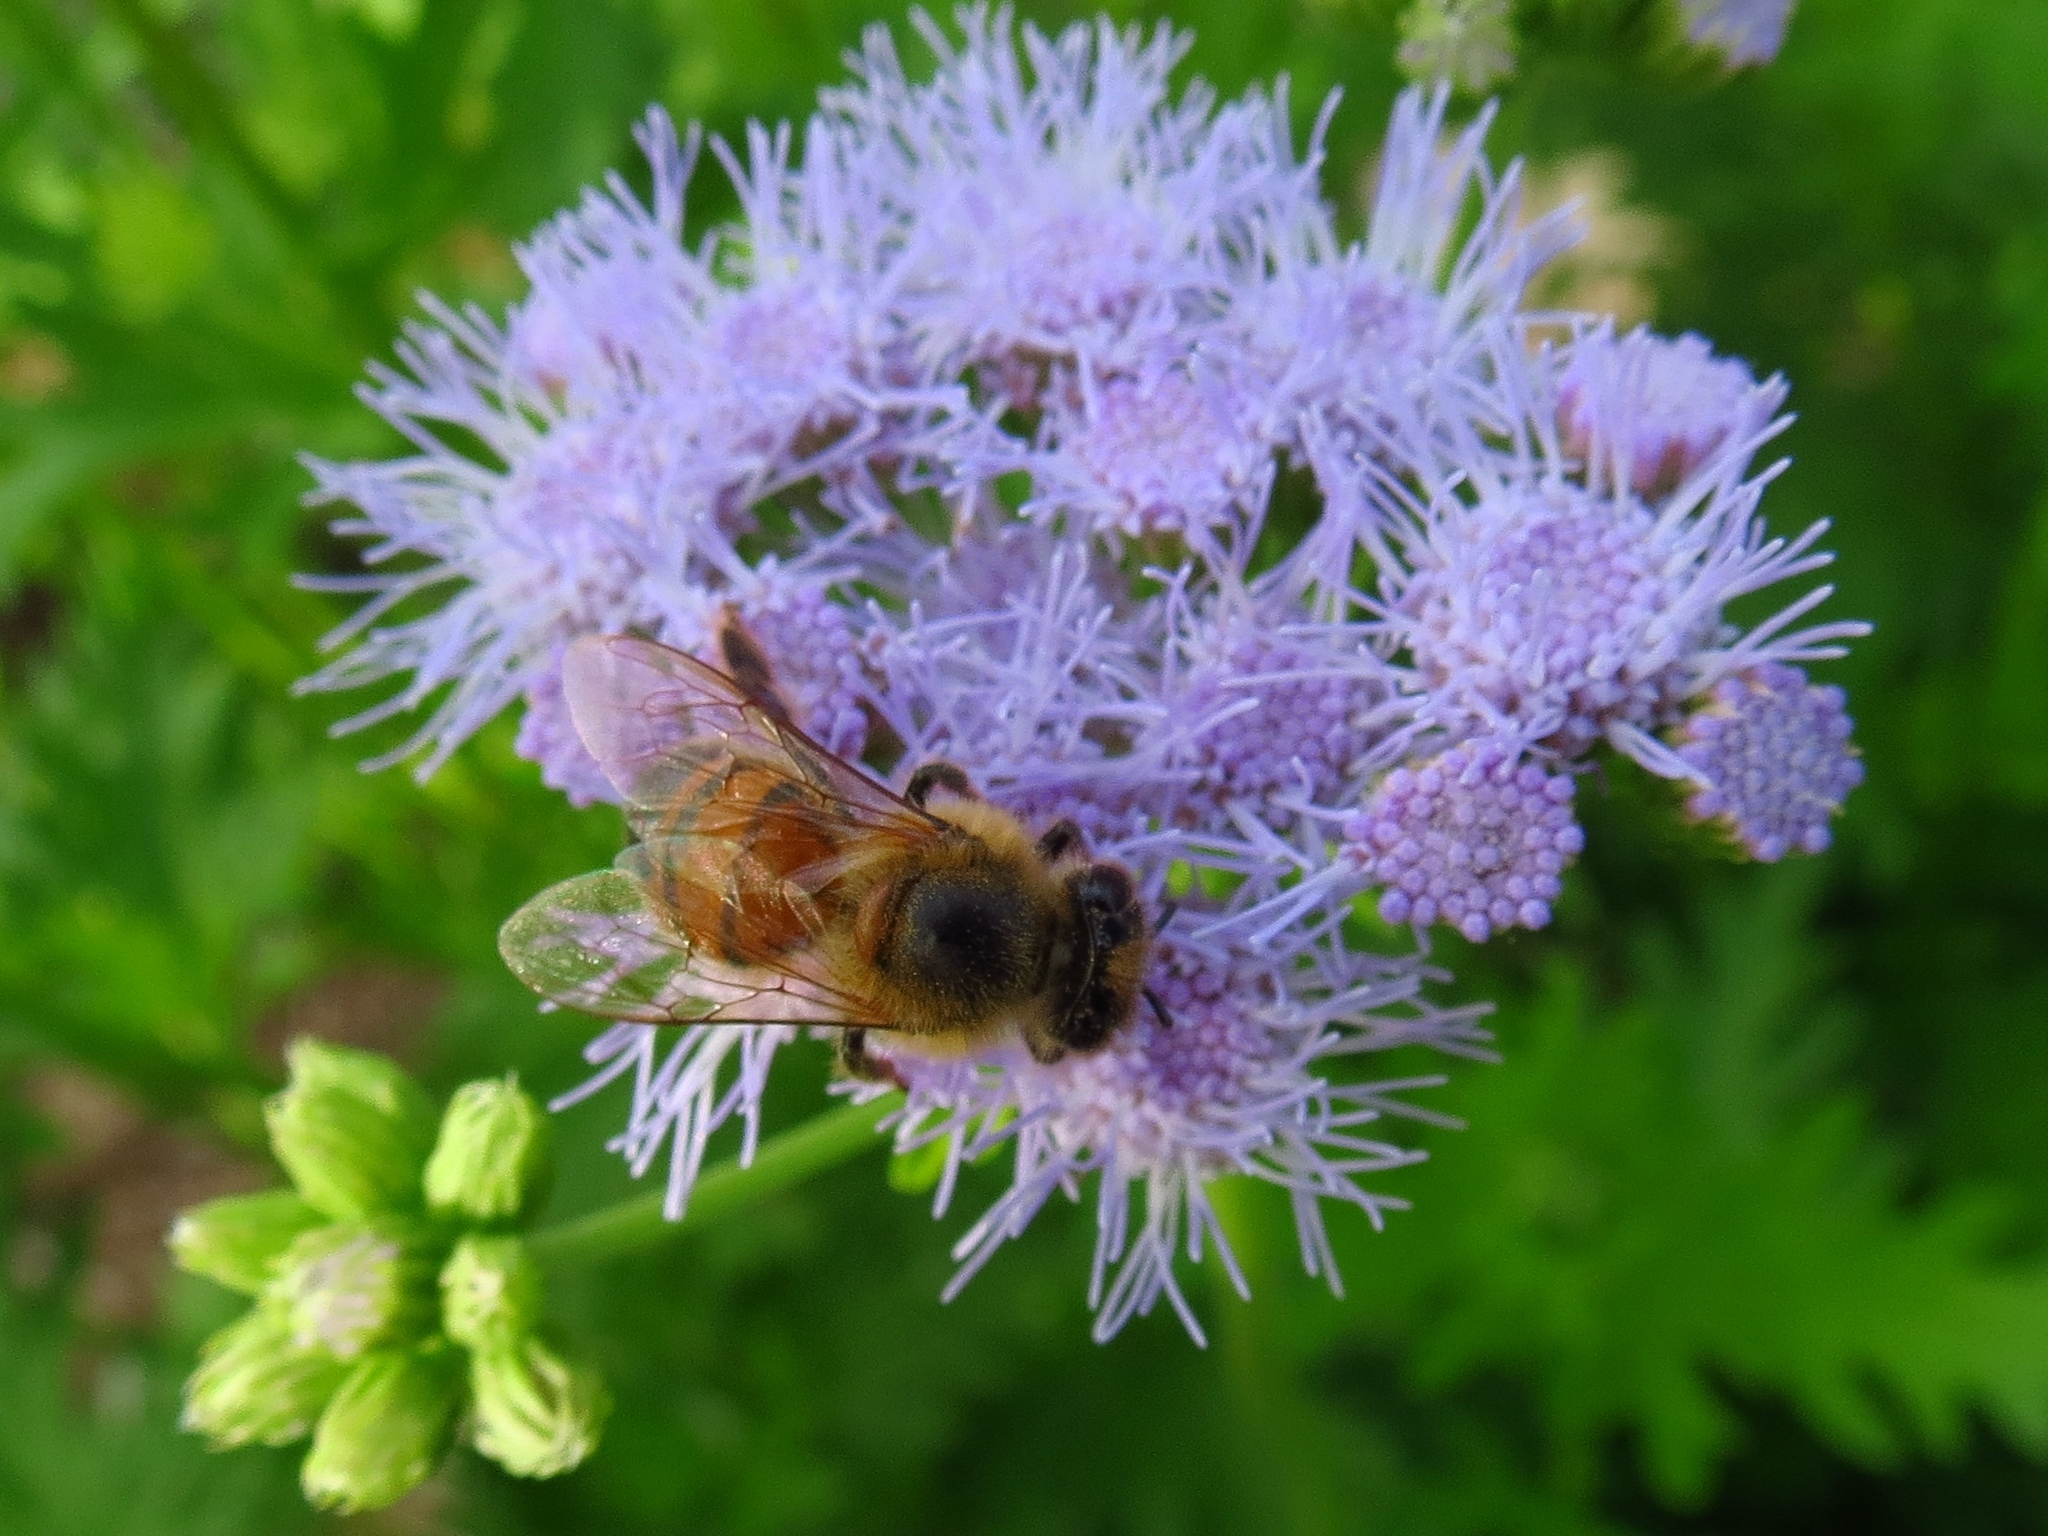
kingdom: Animalia
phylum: Arthropoda
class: Insecta
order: Hymenoptera
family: Apidae
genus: Apis
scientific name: Apis mellifera
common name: Honey bee
